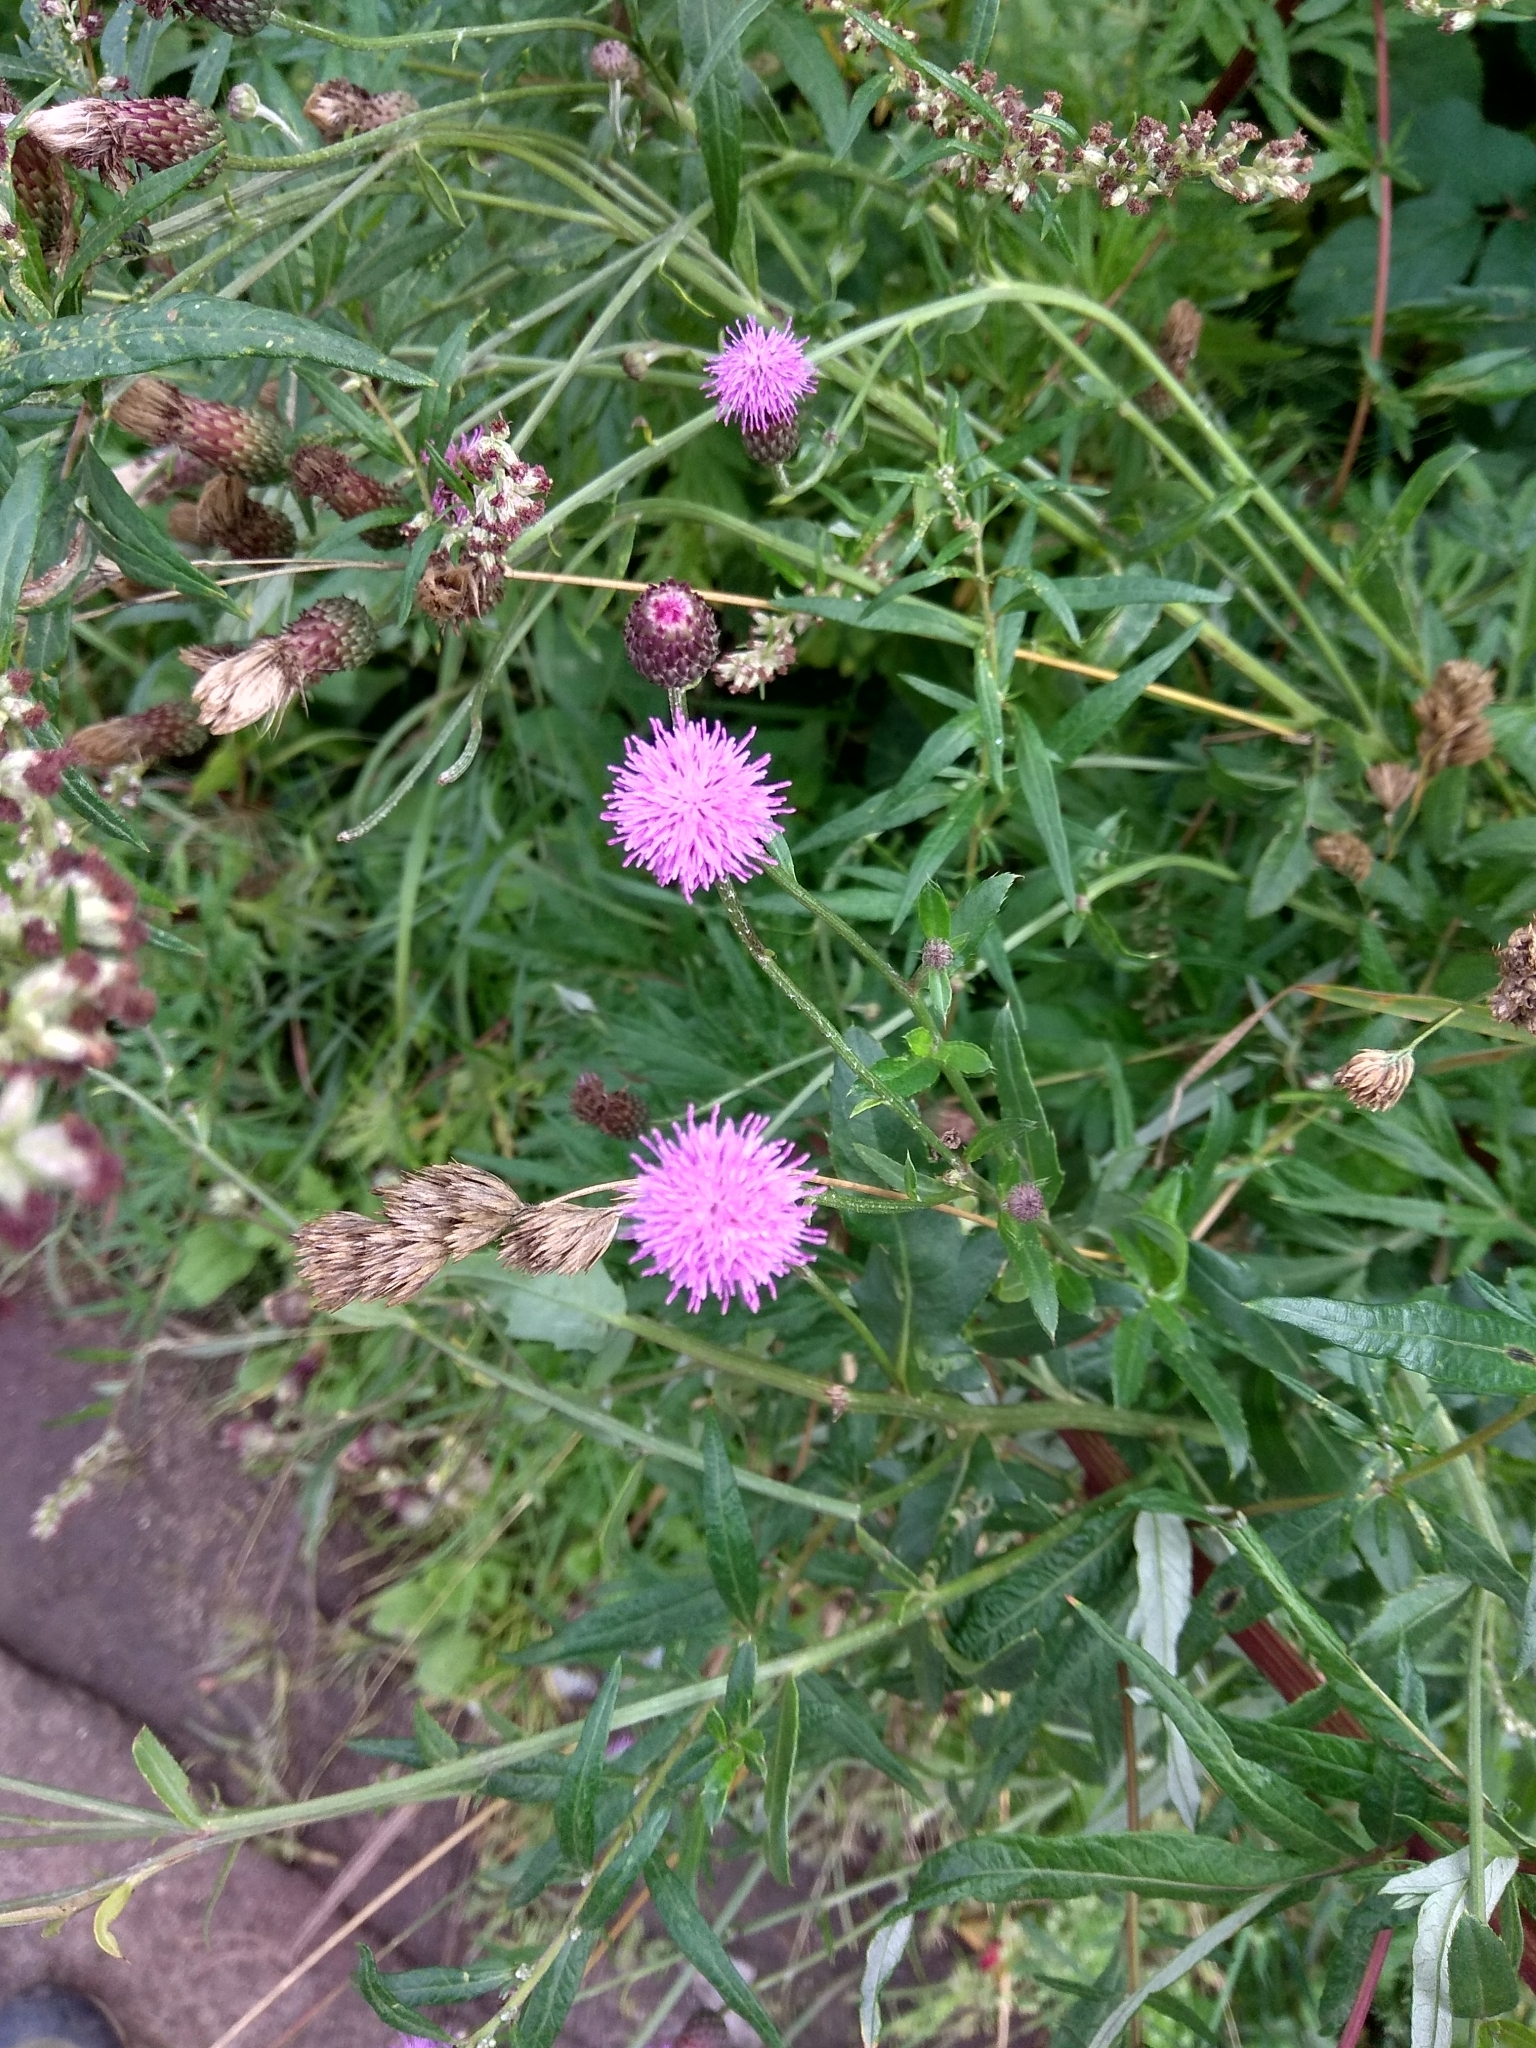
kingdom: Plantae
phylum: Tracheophyta
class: Magnoliopsida
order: Asterales
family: Asteraceae
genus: Cirsium
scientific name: Cirsium arvense
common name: Creeping thistle
